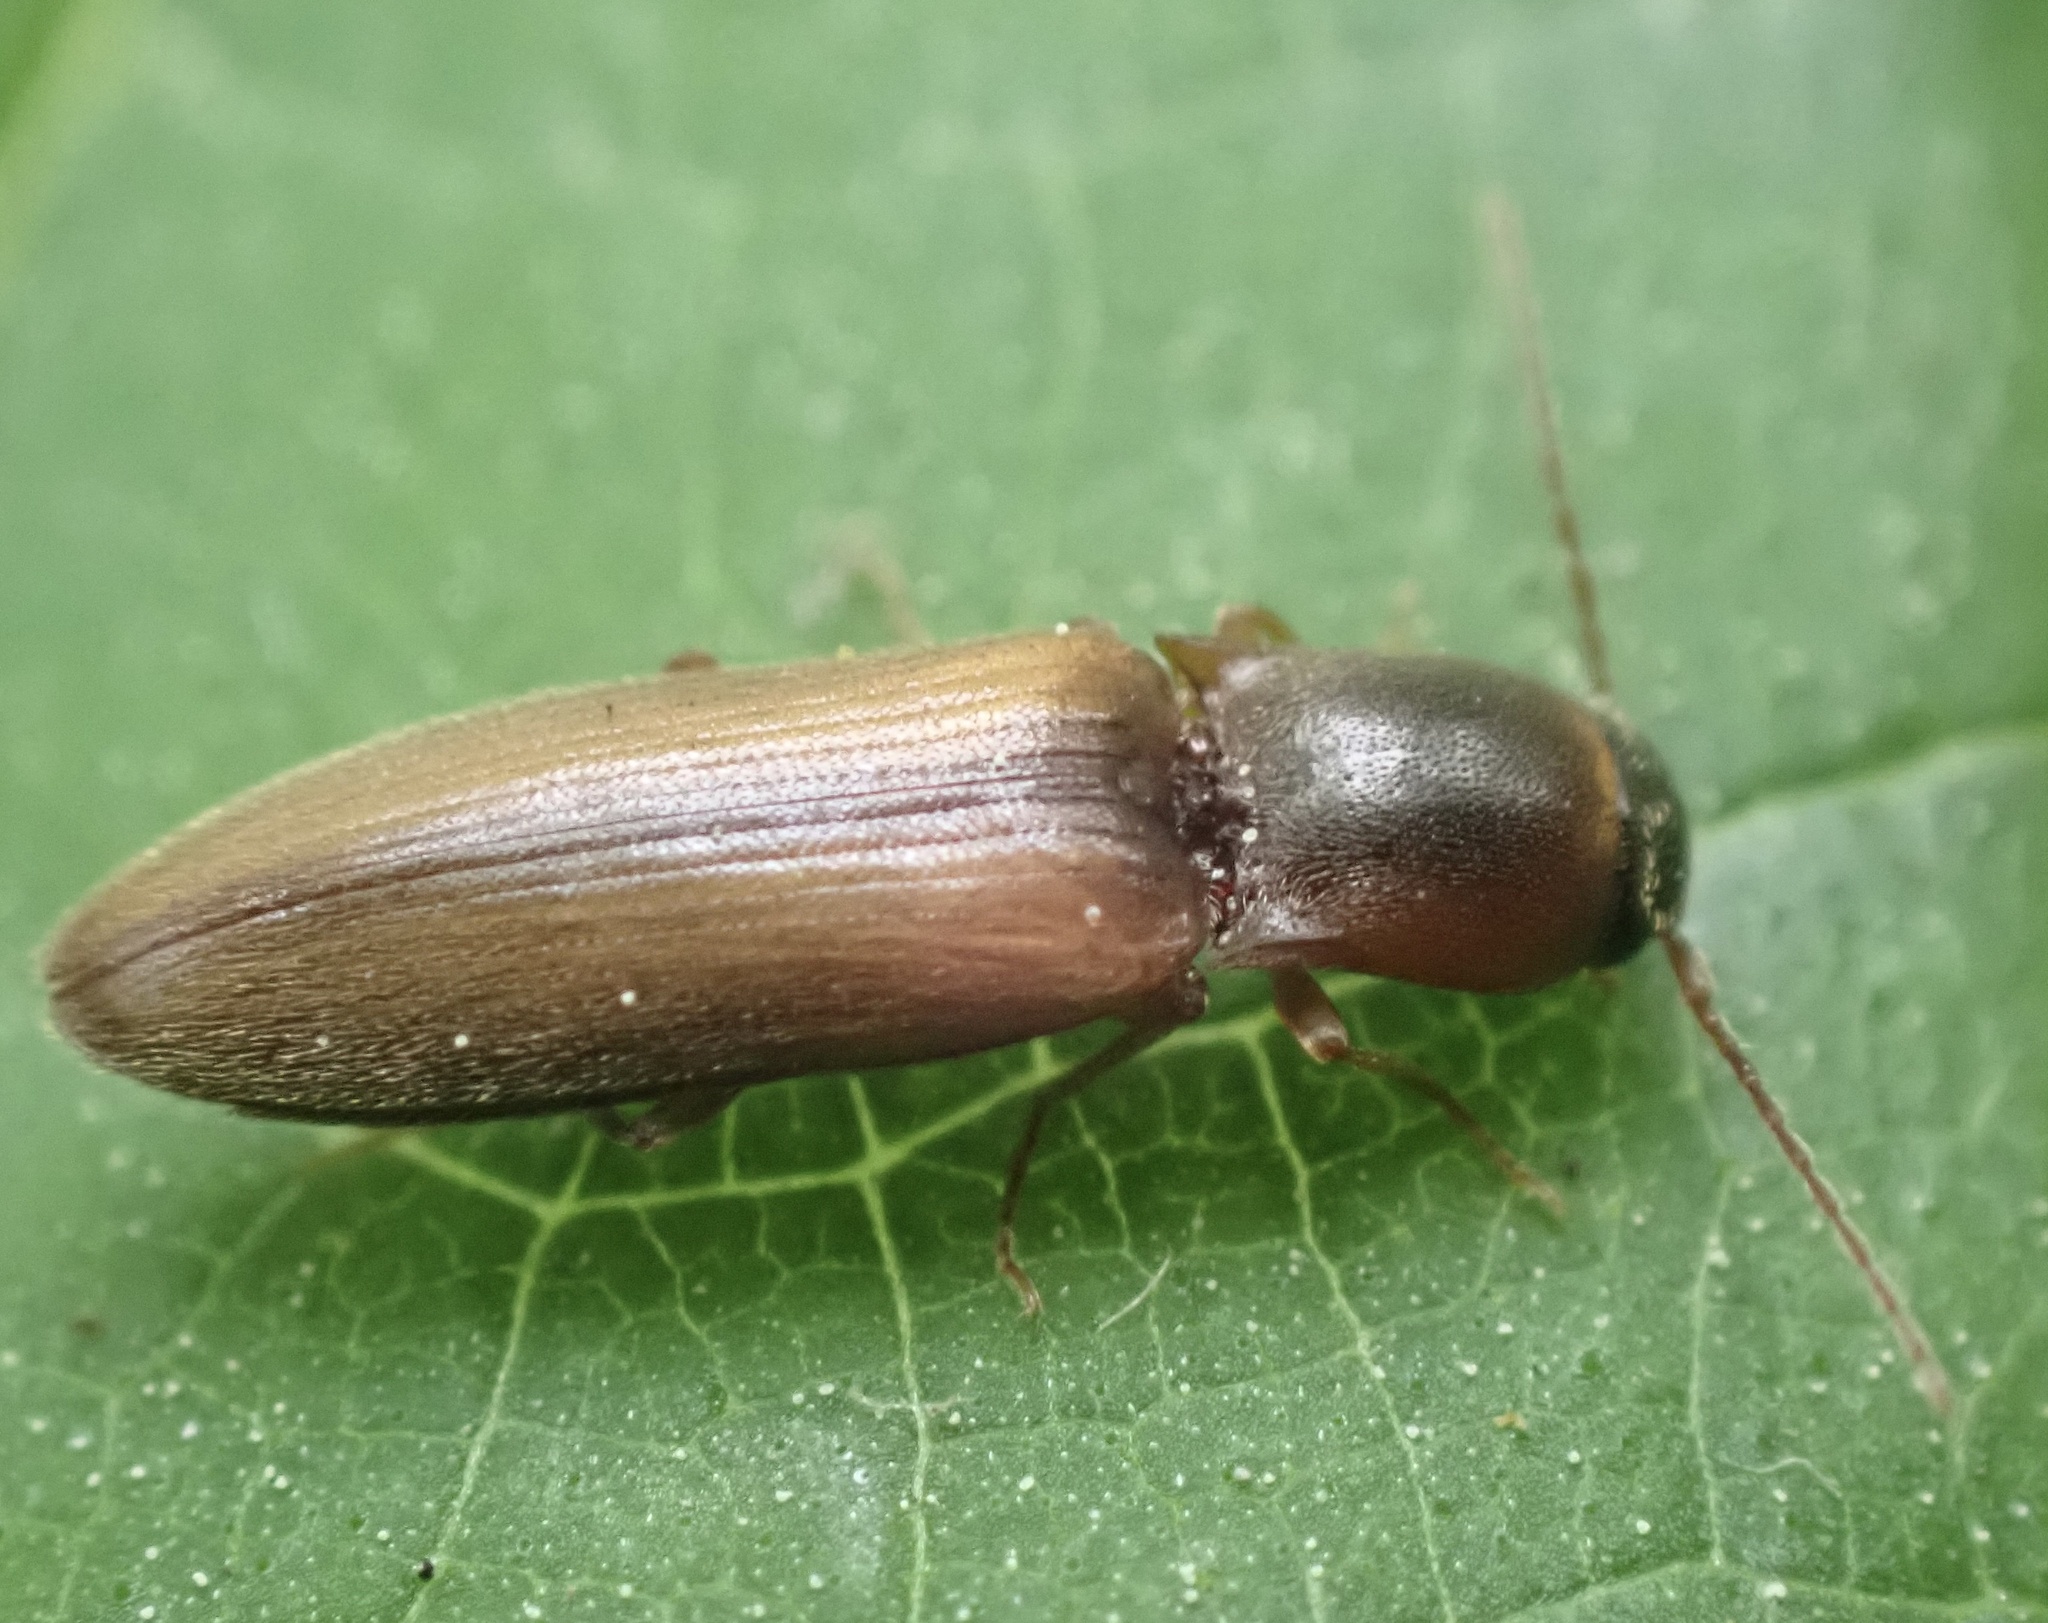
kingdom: Animalia
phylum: Arthropoda
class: Insecta
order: Coleoptera
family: Elateridae
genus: Dalopius
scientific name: Dalopius marginatus
